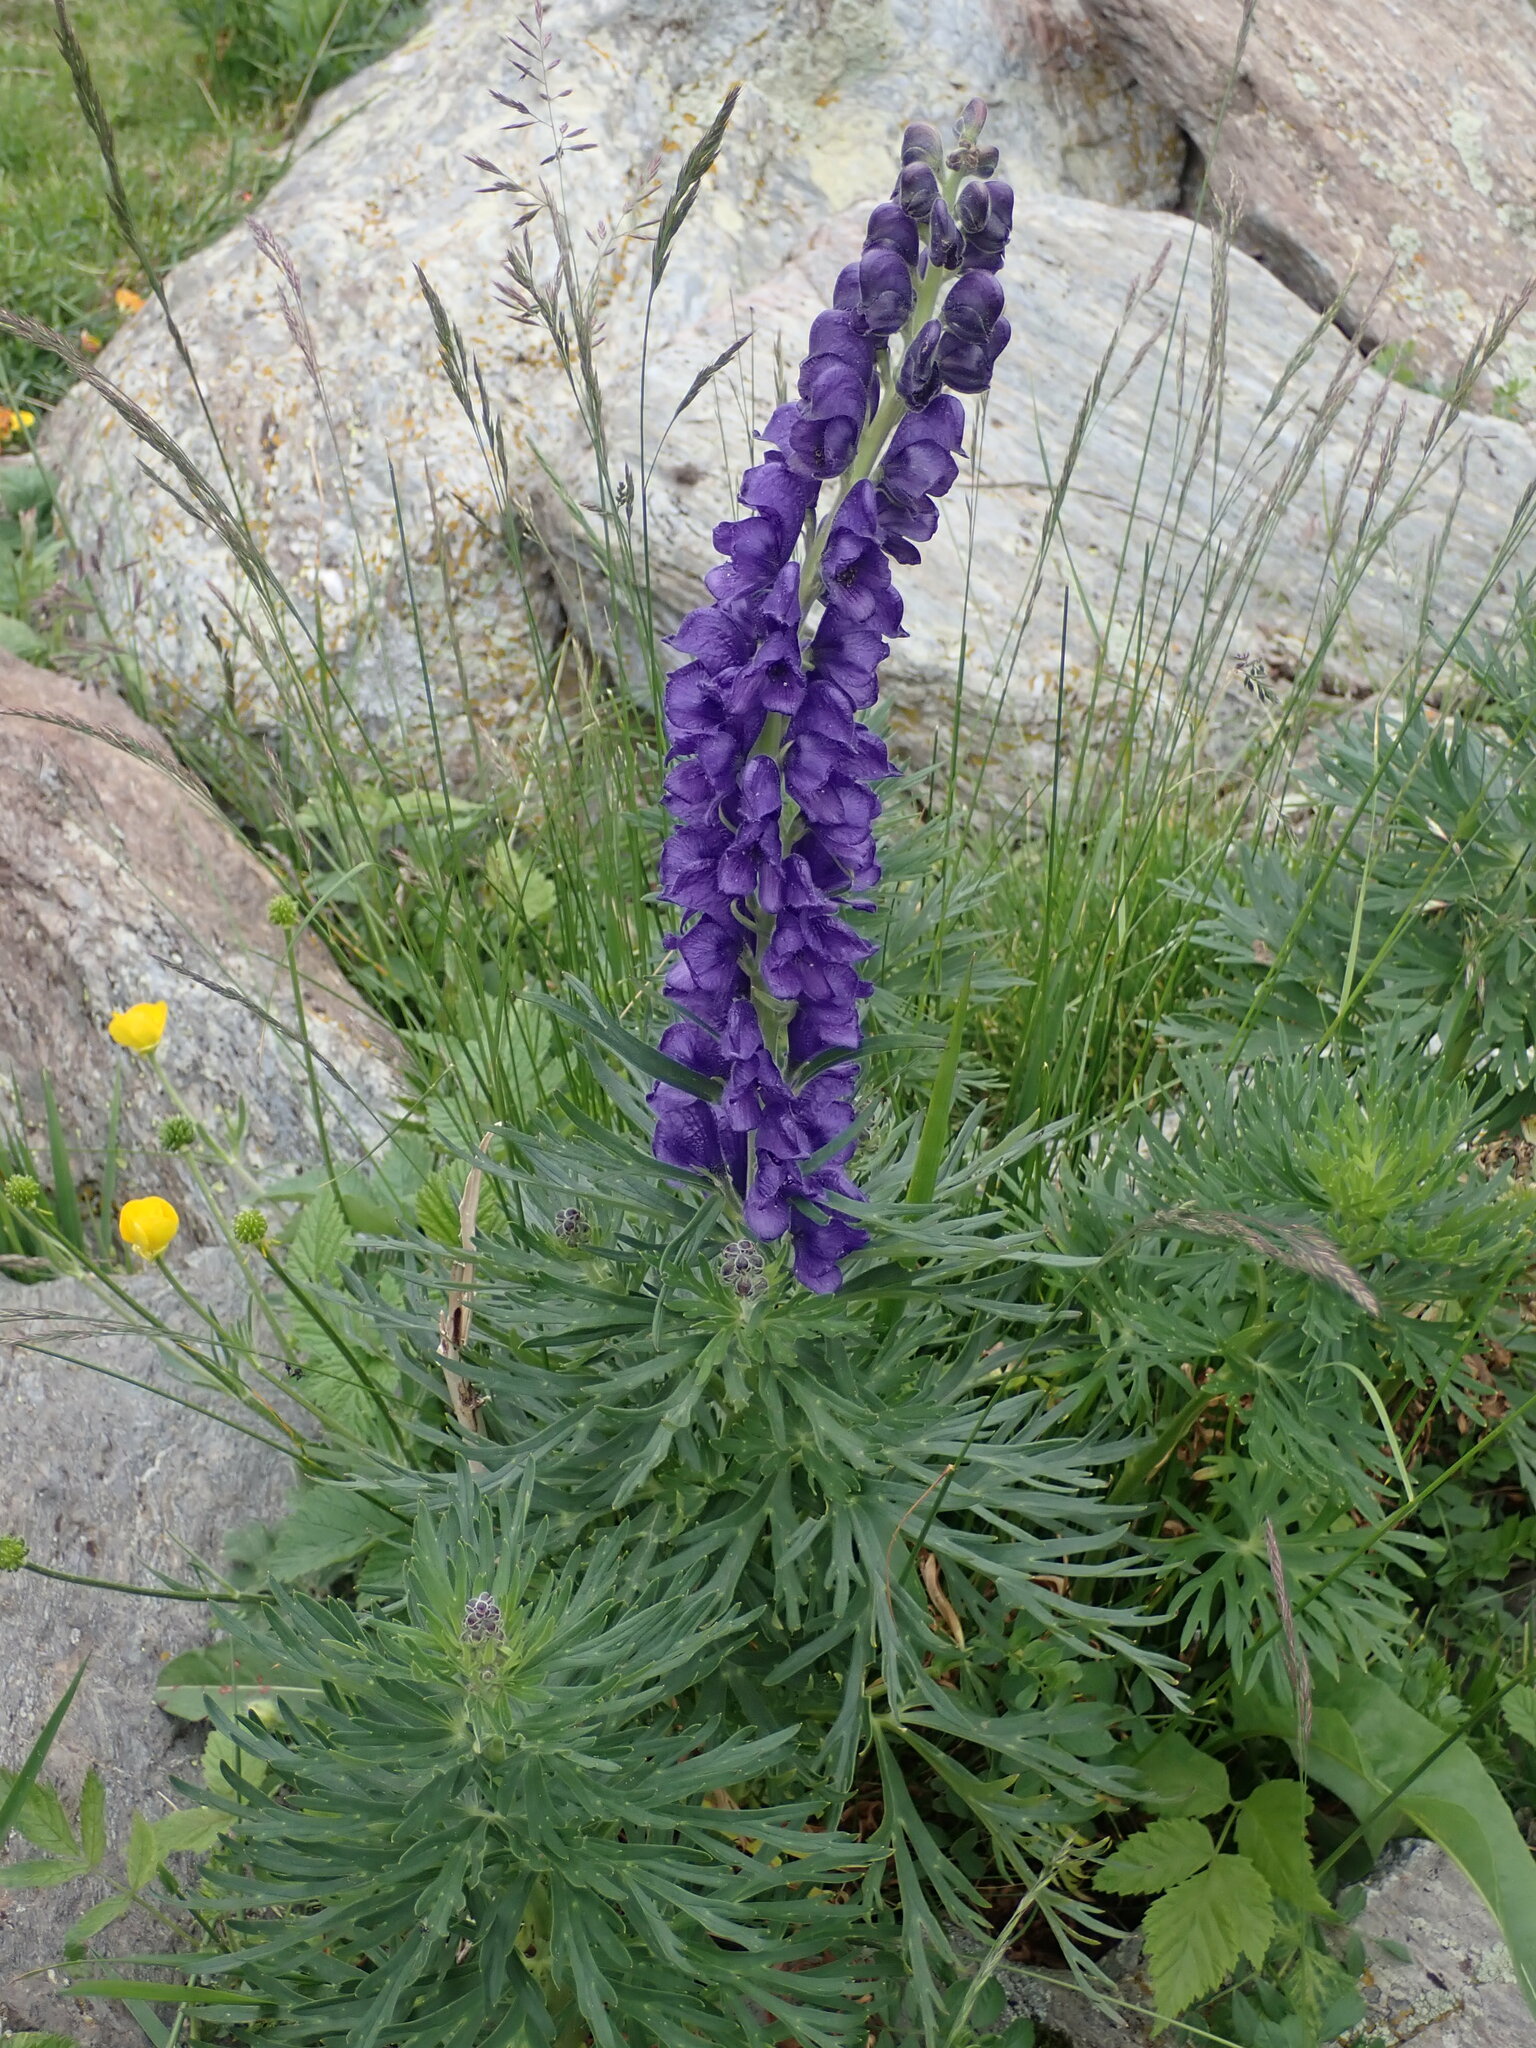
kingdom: Plantae
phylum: Tracheophyta
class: Magnoliopsida
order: Ranunculales
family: Ranunculaceae
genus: Aconitum
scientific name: Aconitum napellus
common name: Garden monkshood
